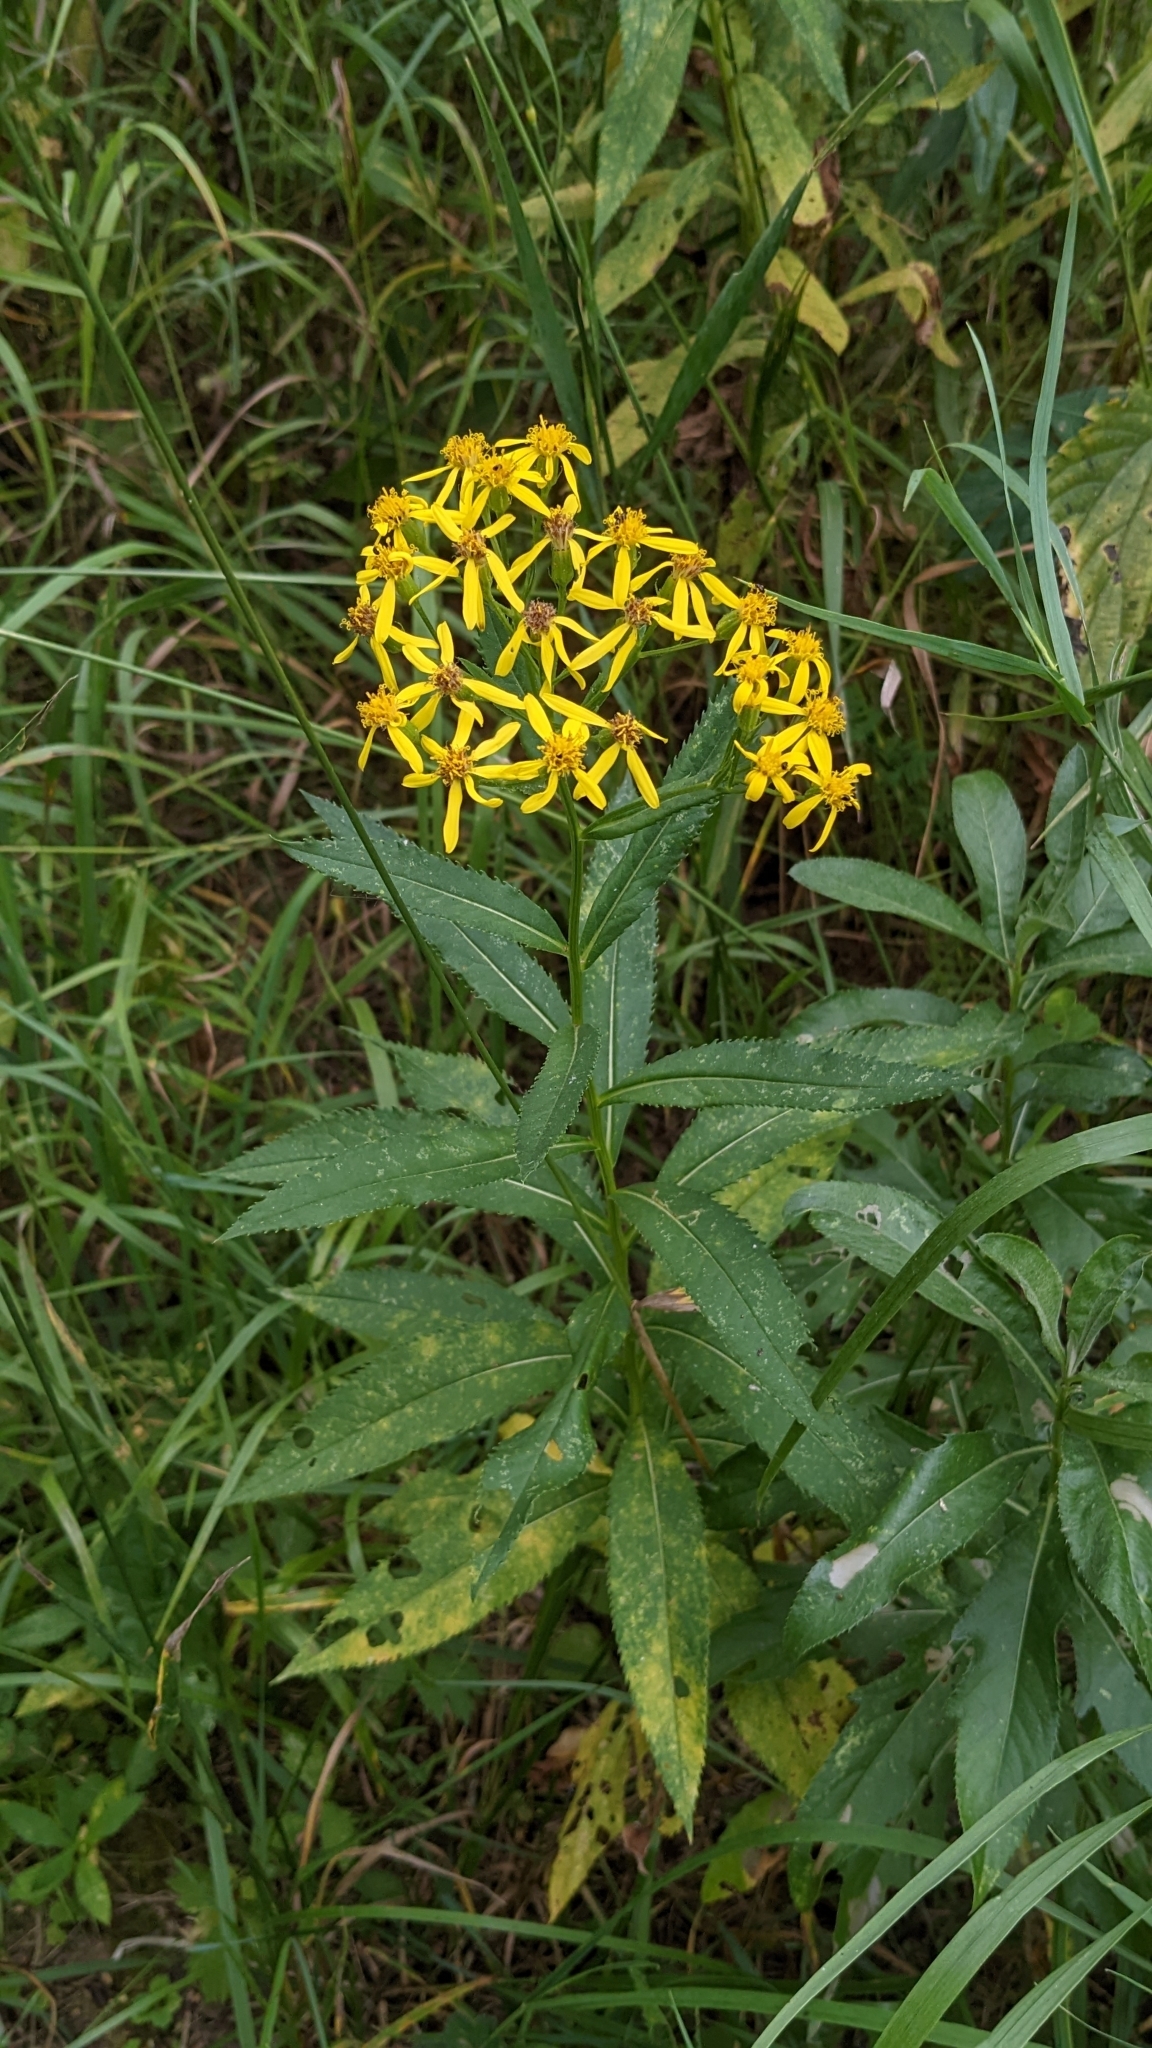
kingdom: Plantae
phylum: Tracheophyta
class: Magnoliopsida
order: Asterales
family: Asteraceae
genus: Senecio
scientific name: Senecio sarracenicus
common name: Broad-leaved ragwort
